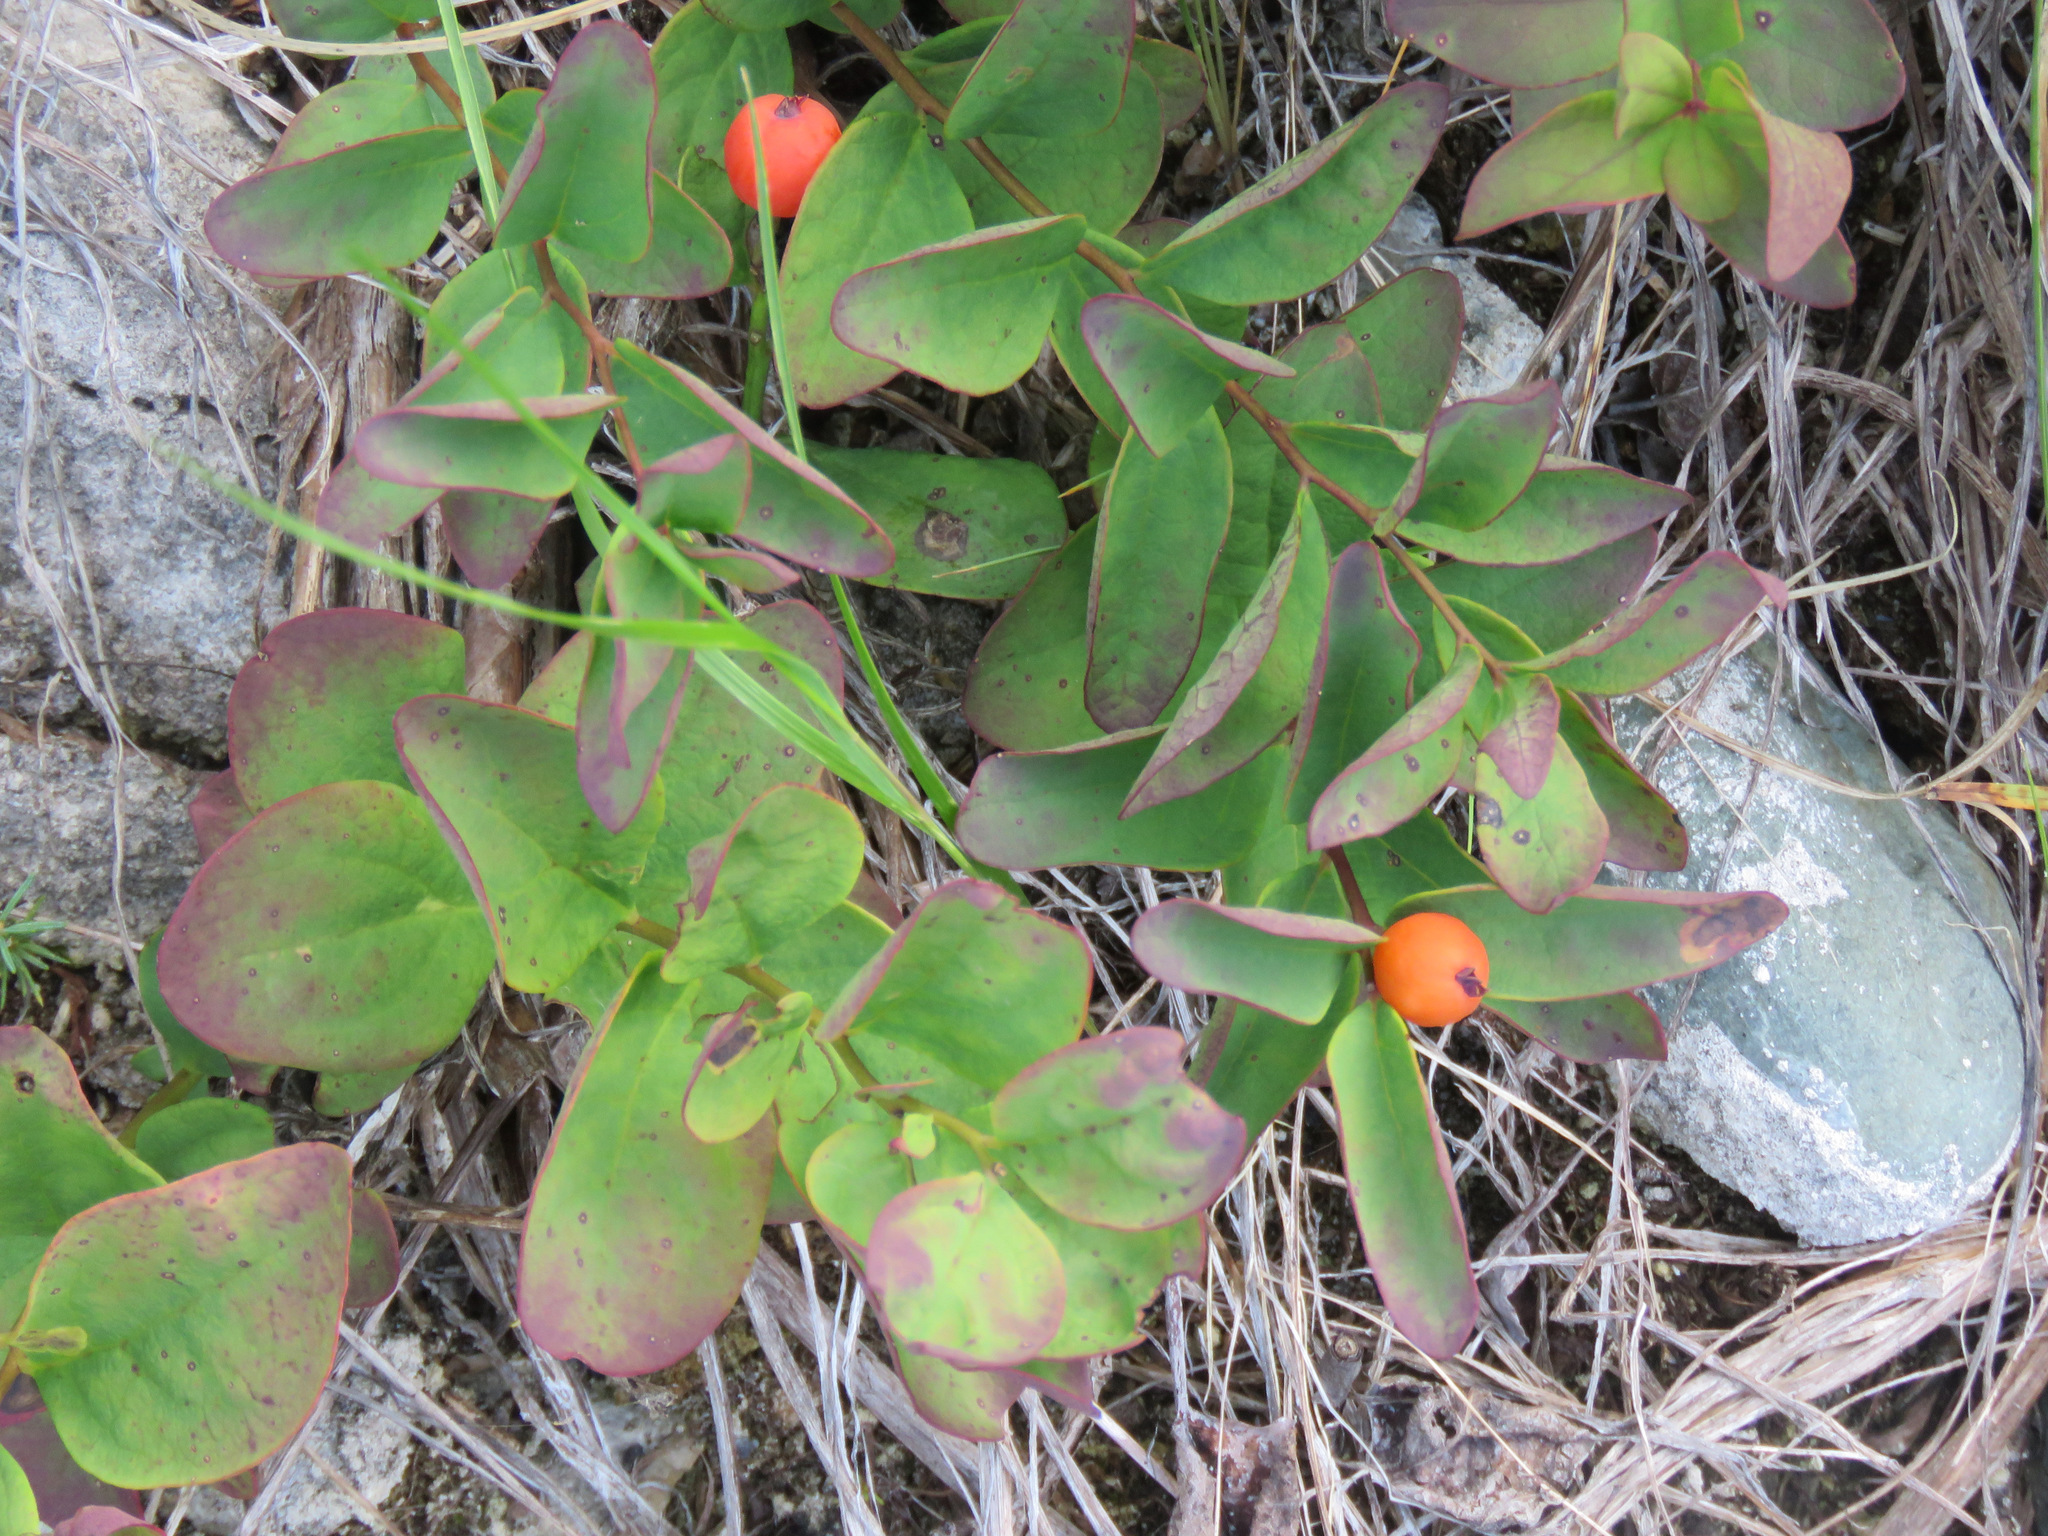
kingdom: Plantae
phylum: Tracheophyta
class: Magnoliopsida
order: Santalales
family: Comandraceae
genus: Geocaulon
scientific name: Geocaulon lividum
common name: Earthberry
